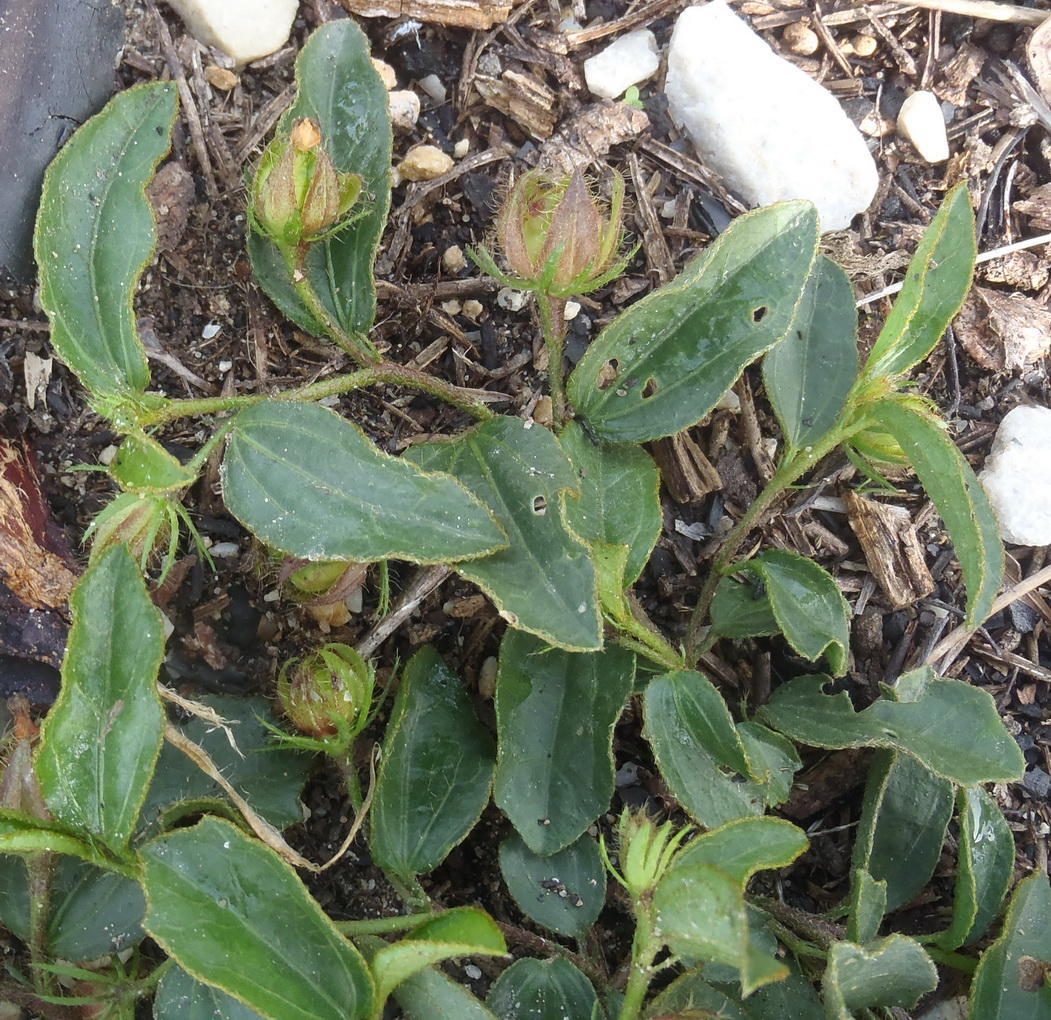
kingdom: Plantae
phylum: Tracheophyta
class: Magnoliopsida
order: Malvales
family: Malvaceae
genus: Hibiscus
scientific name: Hibiscus aethiopicus
